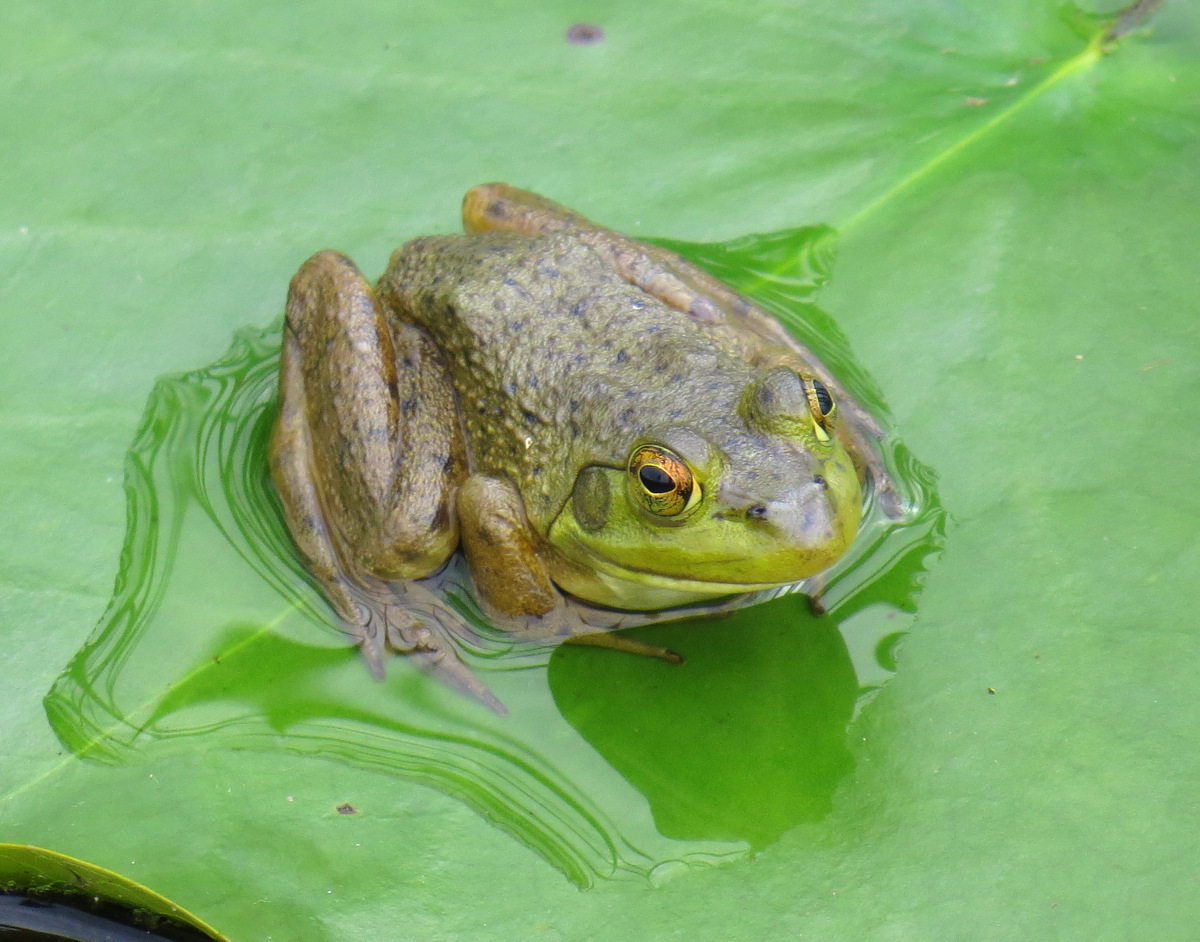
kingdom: Animalia
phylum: Chordata
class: Amphibia
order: Anura
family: Ranidae
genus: Lithobates
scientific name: Lithobates catesbeianus
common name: American bullfrog
